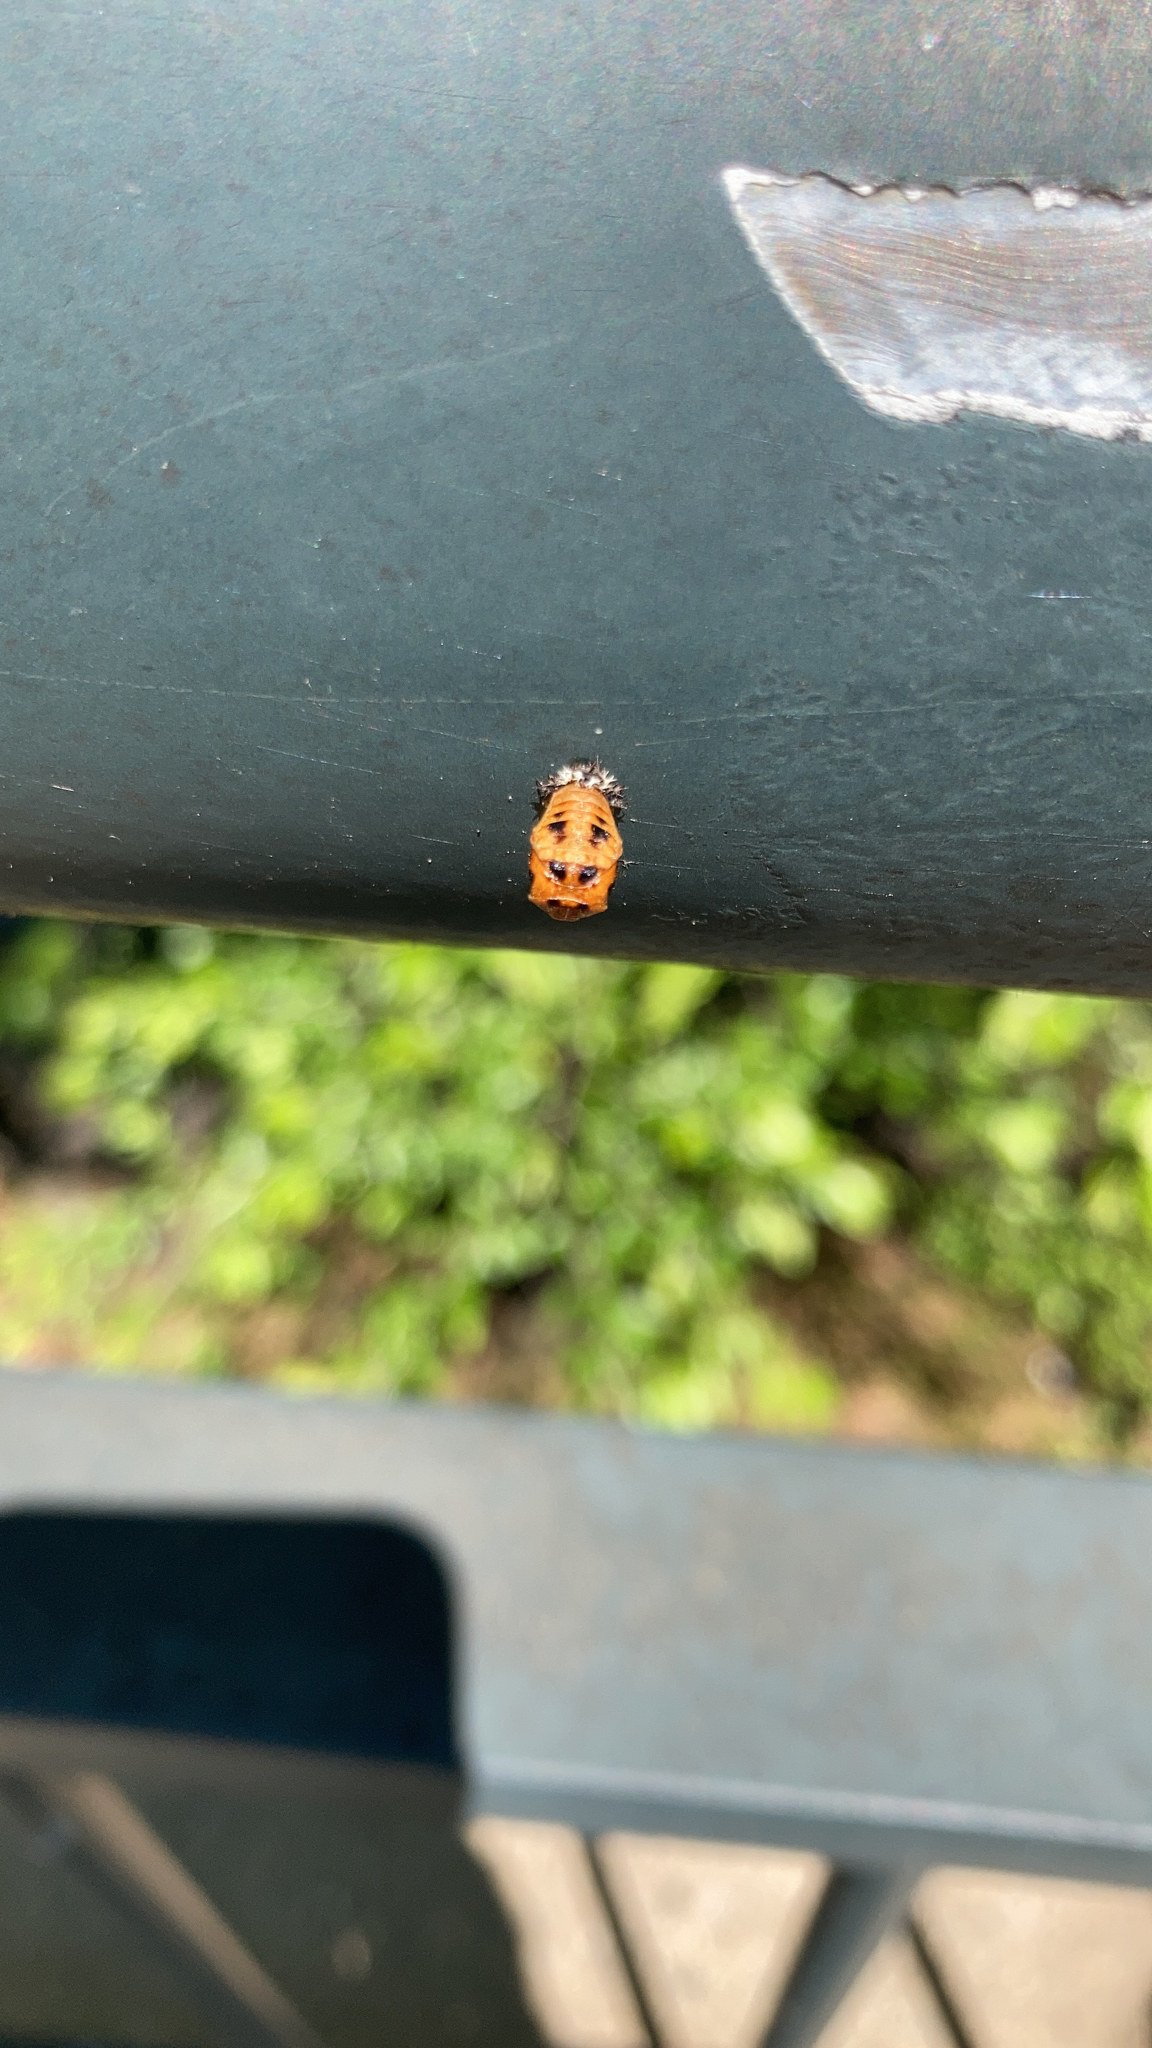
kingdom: Animalia
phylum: Arthropoda
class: Insecta
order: Coleoptera
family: Coccinellidae
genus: Harmonia
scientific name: Harmonia axyridis
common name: Harlequin ladybird
